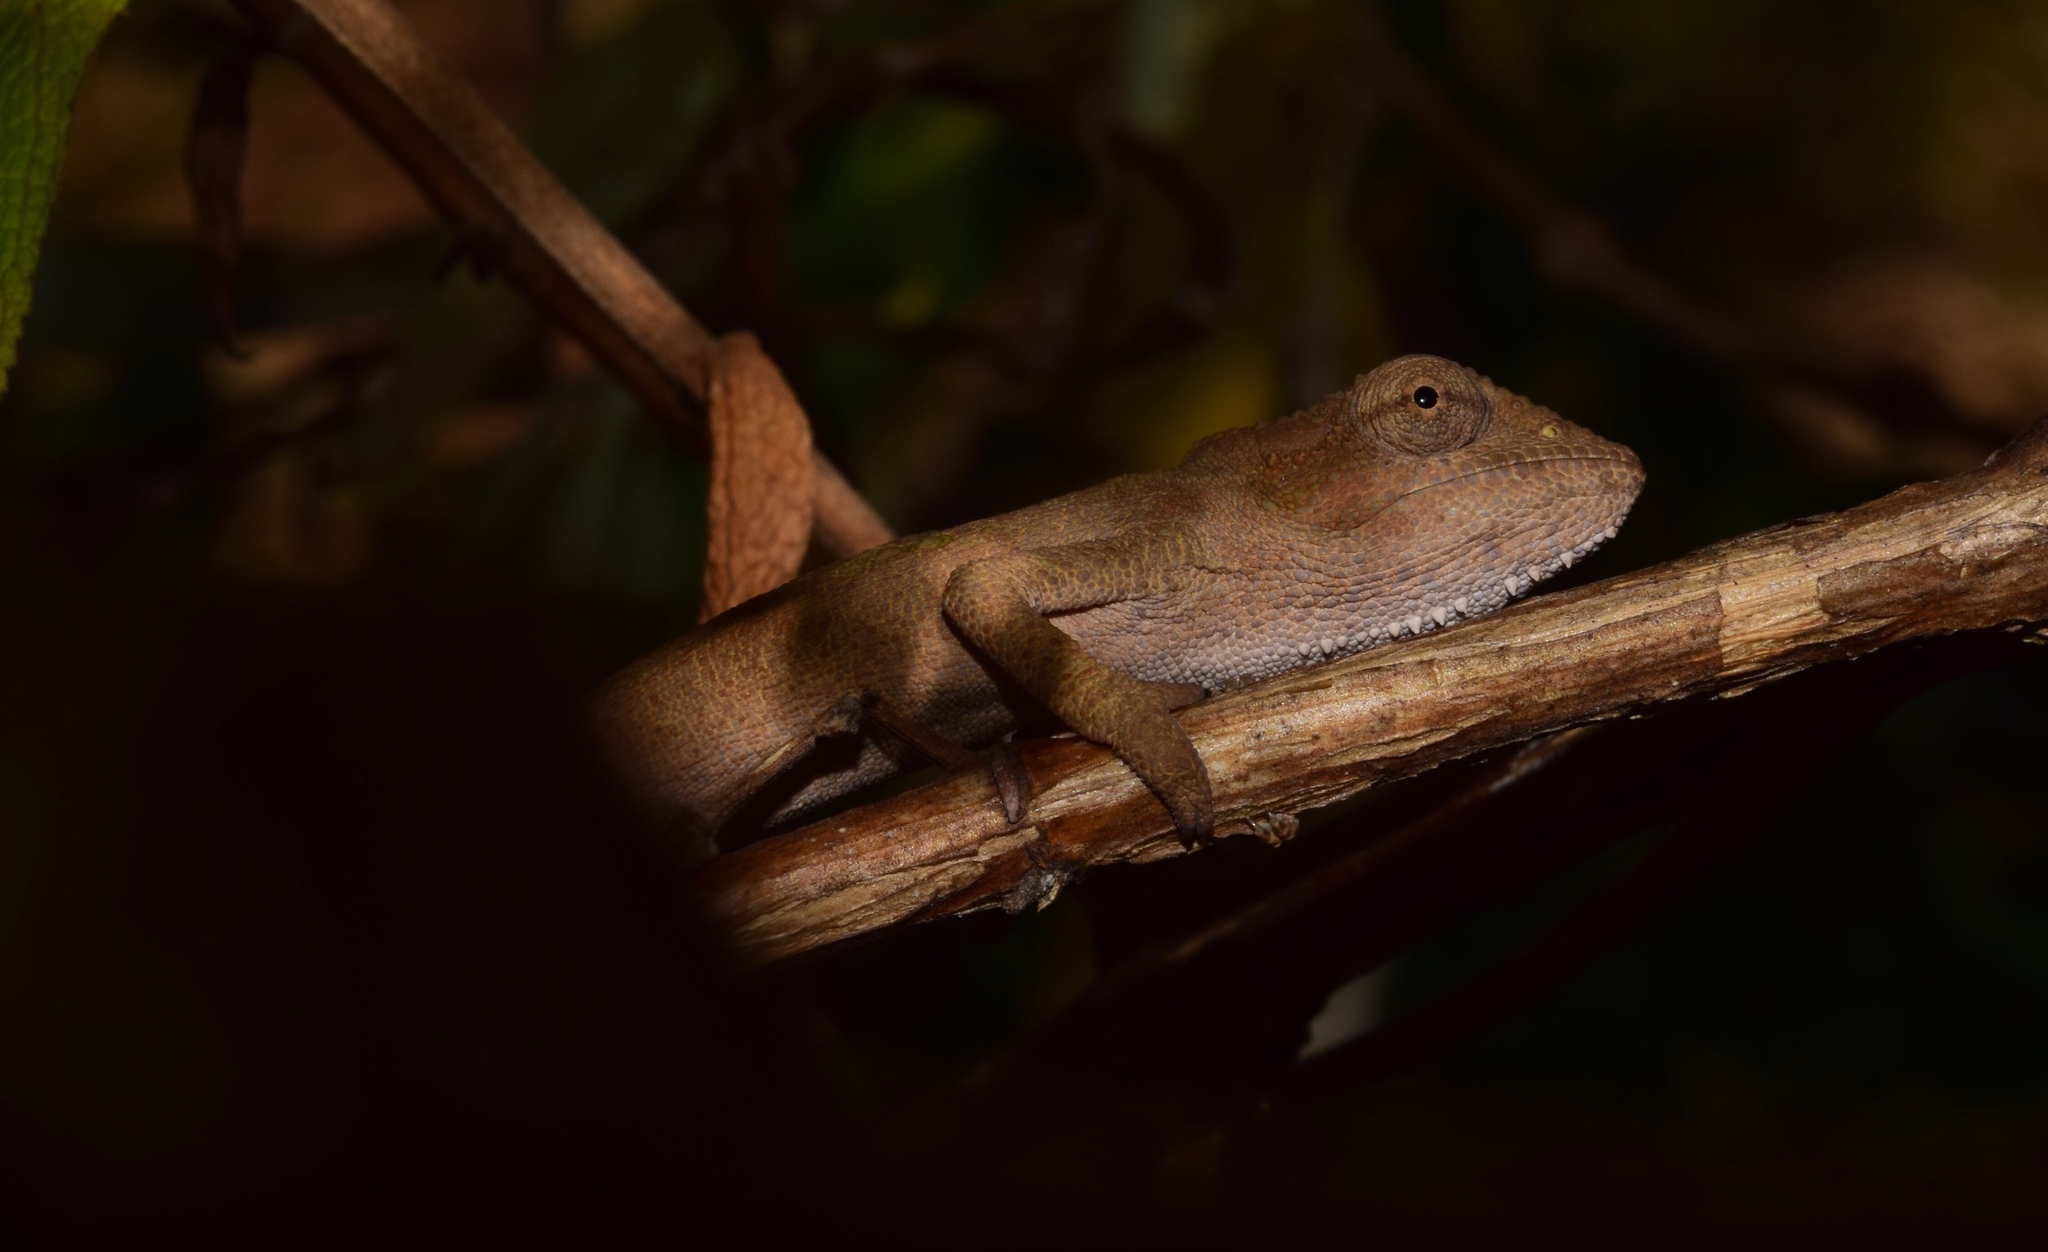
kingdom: Animalia
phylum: Chordata
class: Squamata
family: Chamaeleonidae
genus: Bradypodion
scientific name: Bradypodion melanocephalum
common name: Black-headed dwarf chameleon
